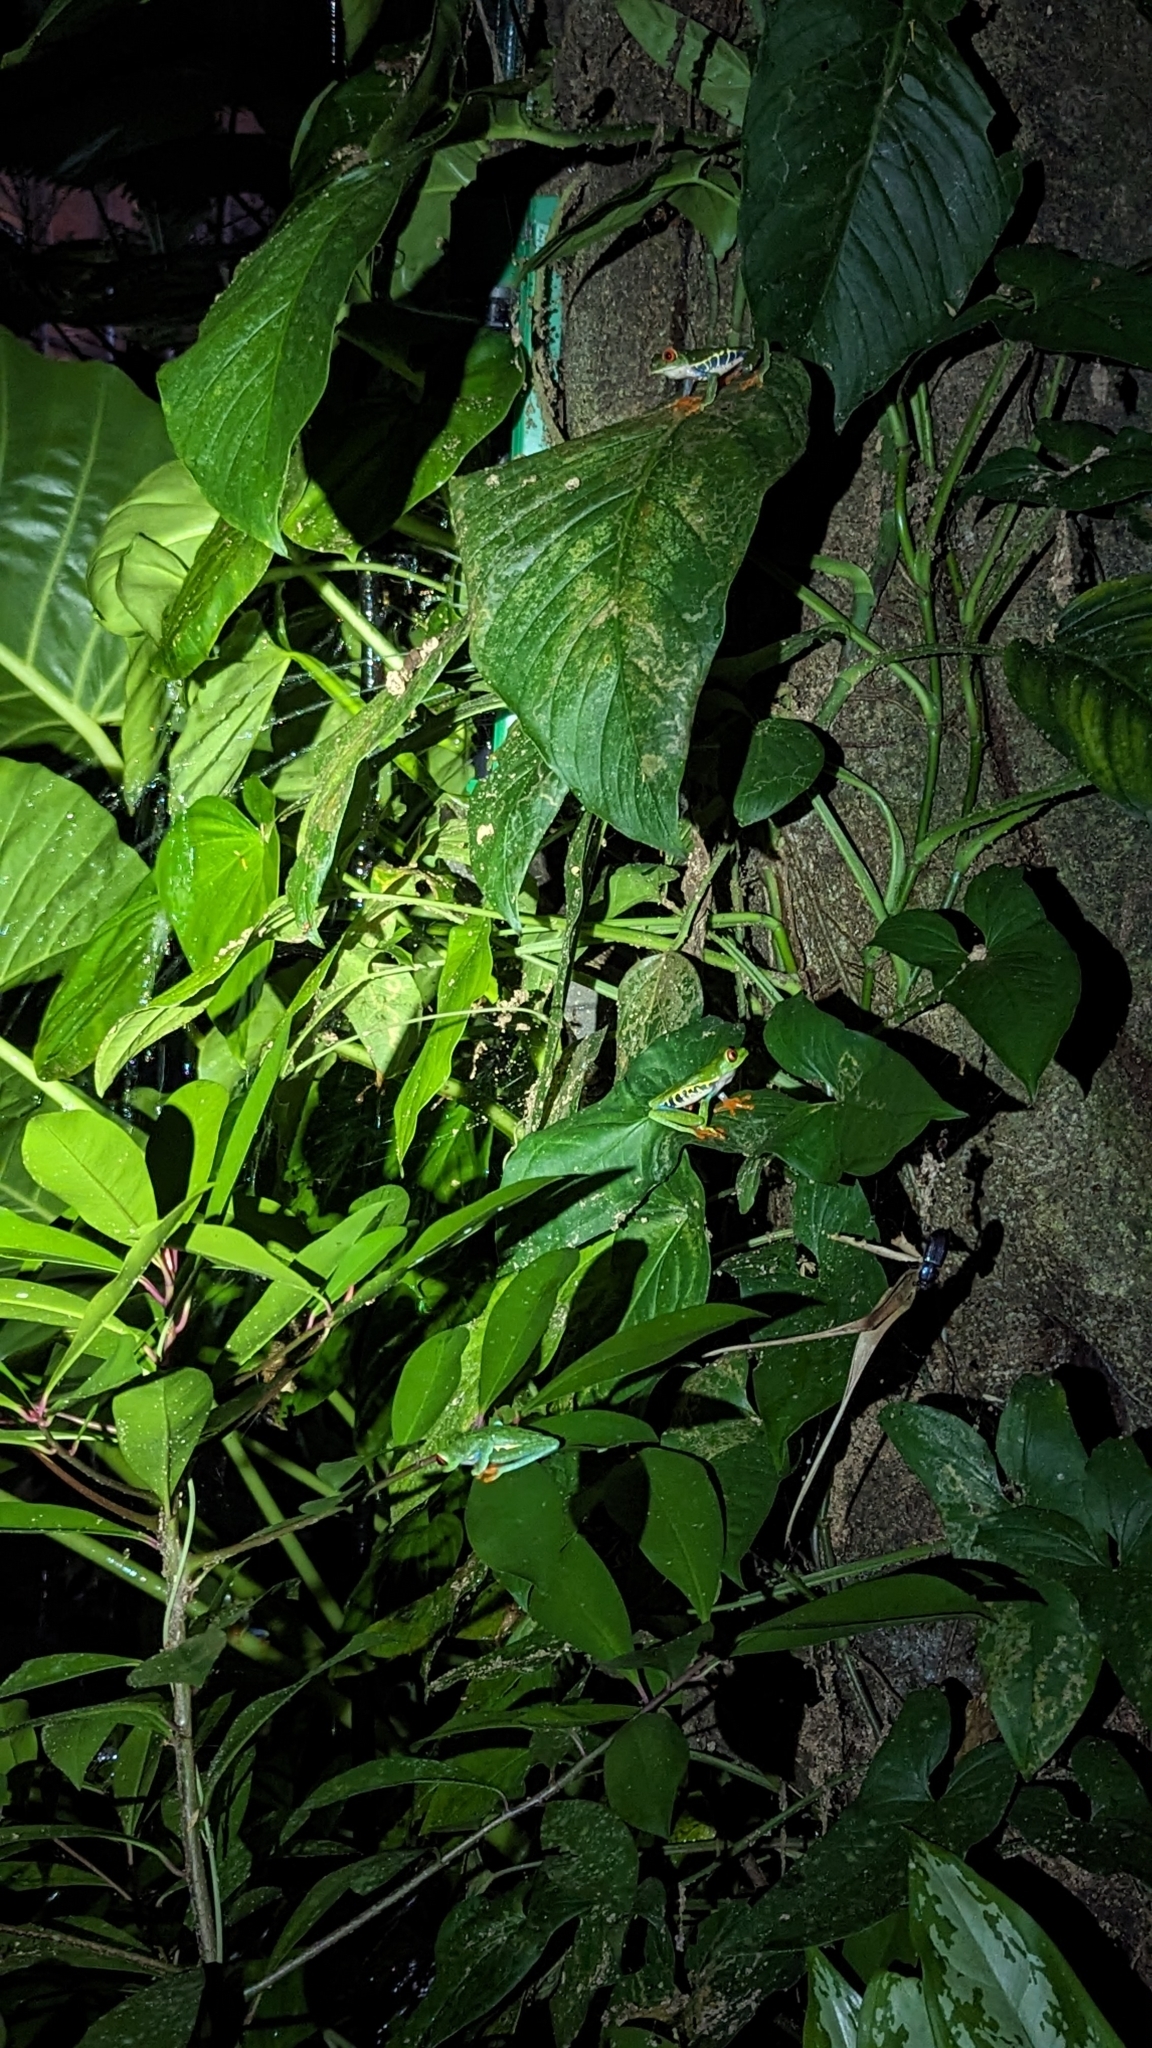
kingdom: Animalia
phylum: Chordata
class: Amphibia
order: Anura
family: Phyllomedusidae
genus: Agalychnis
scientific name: Agalychnis callidryas
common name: Red-eyed treefrog
